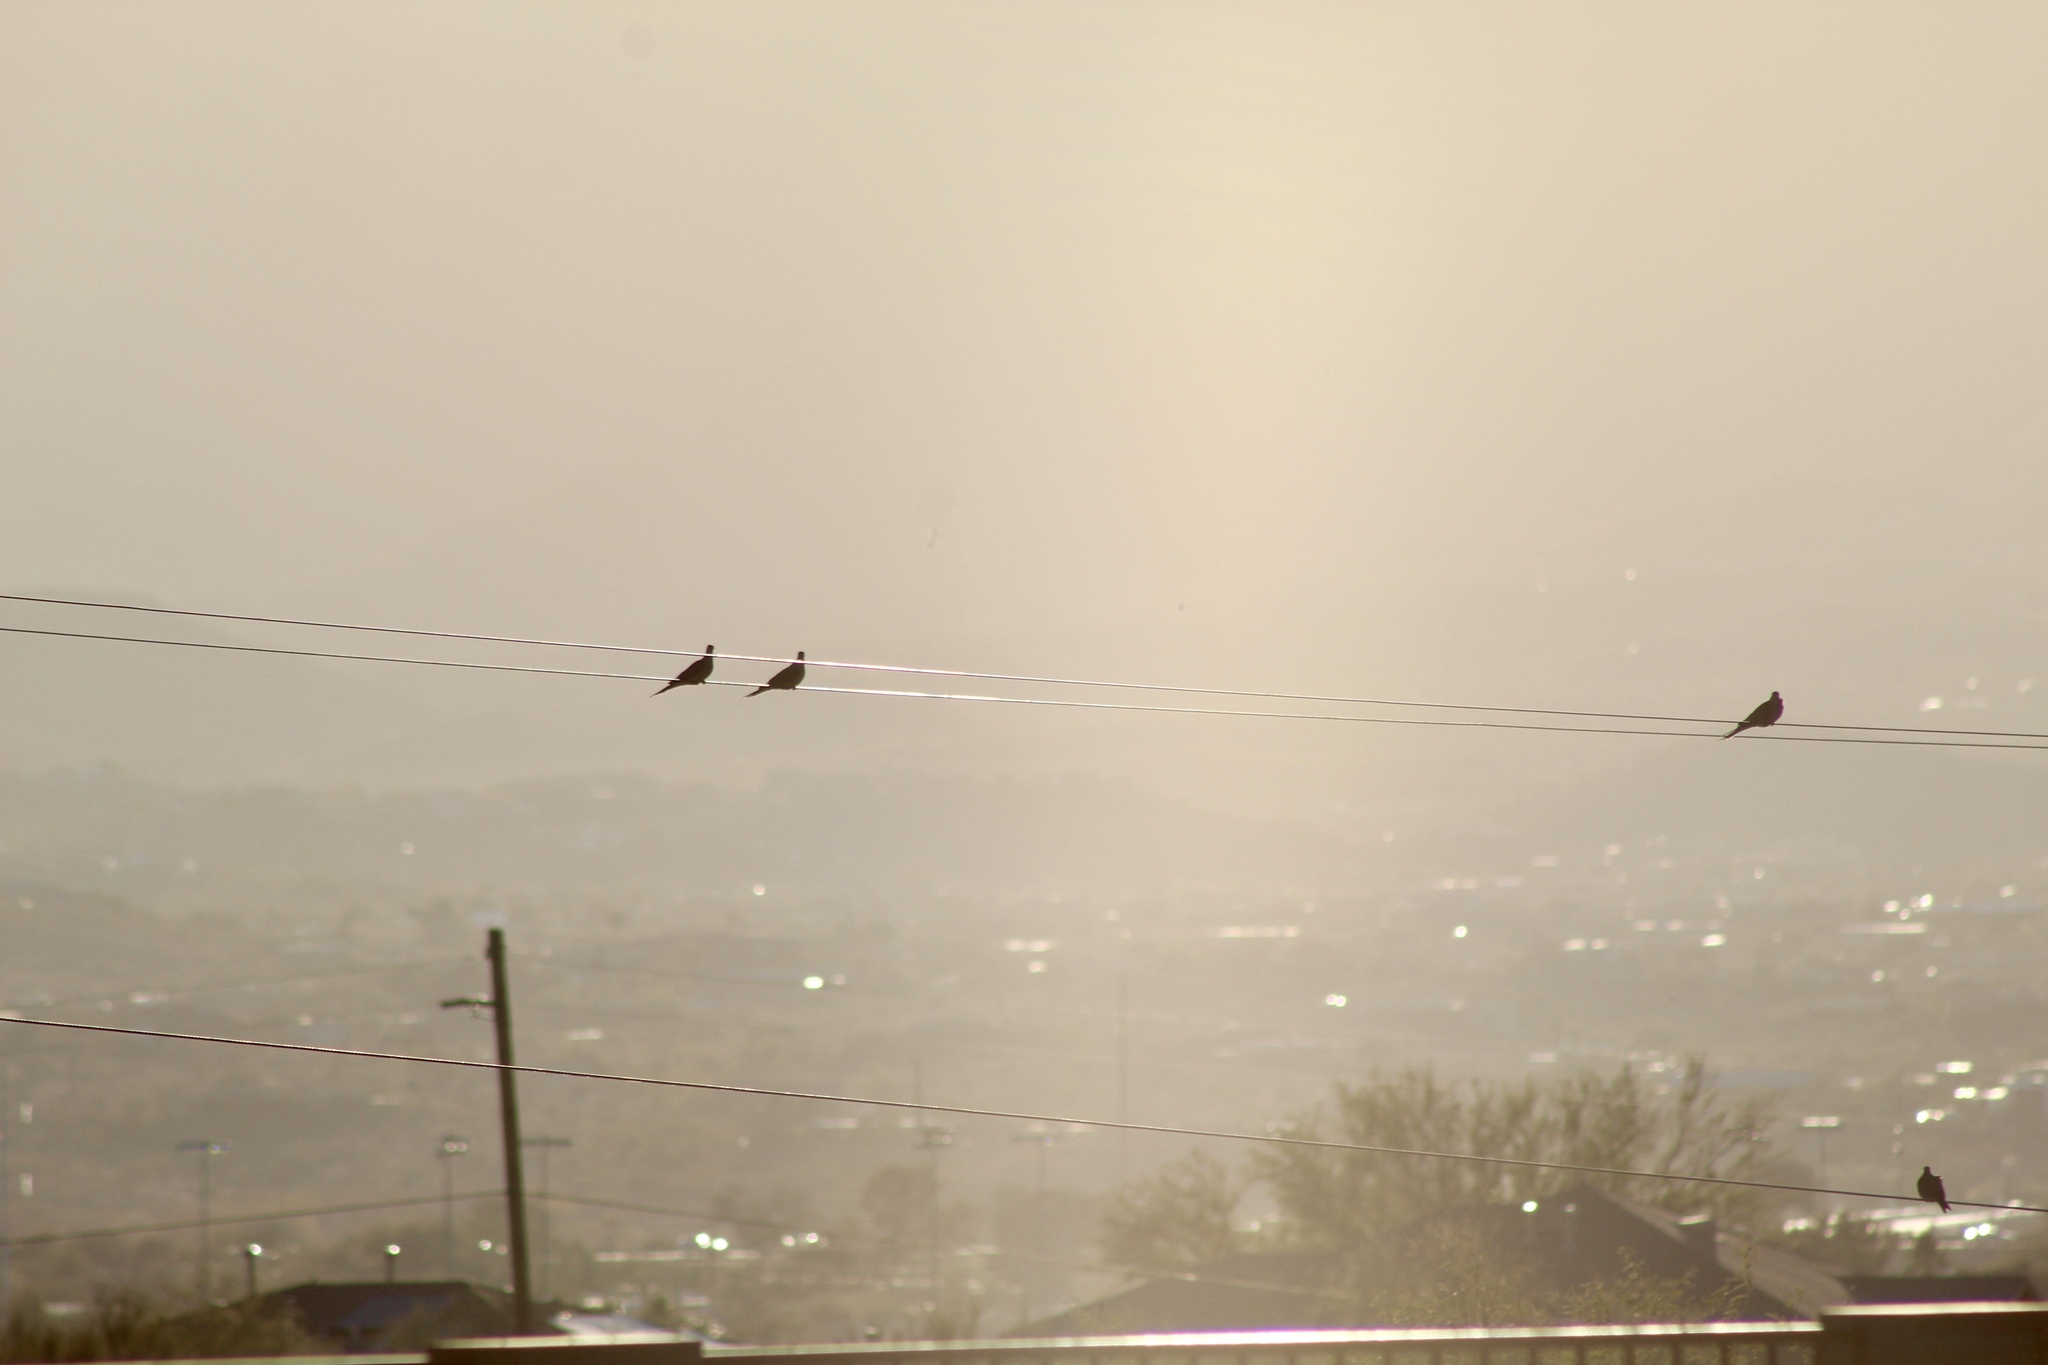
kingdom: Animalia
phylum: Chordata
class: Aves
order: Columbiformes
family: Columbidae
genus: Zenaida
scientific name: Zenaida macroura
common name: Mourning dove
